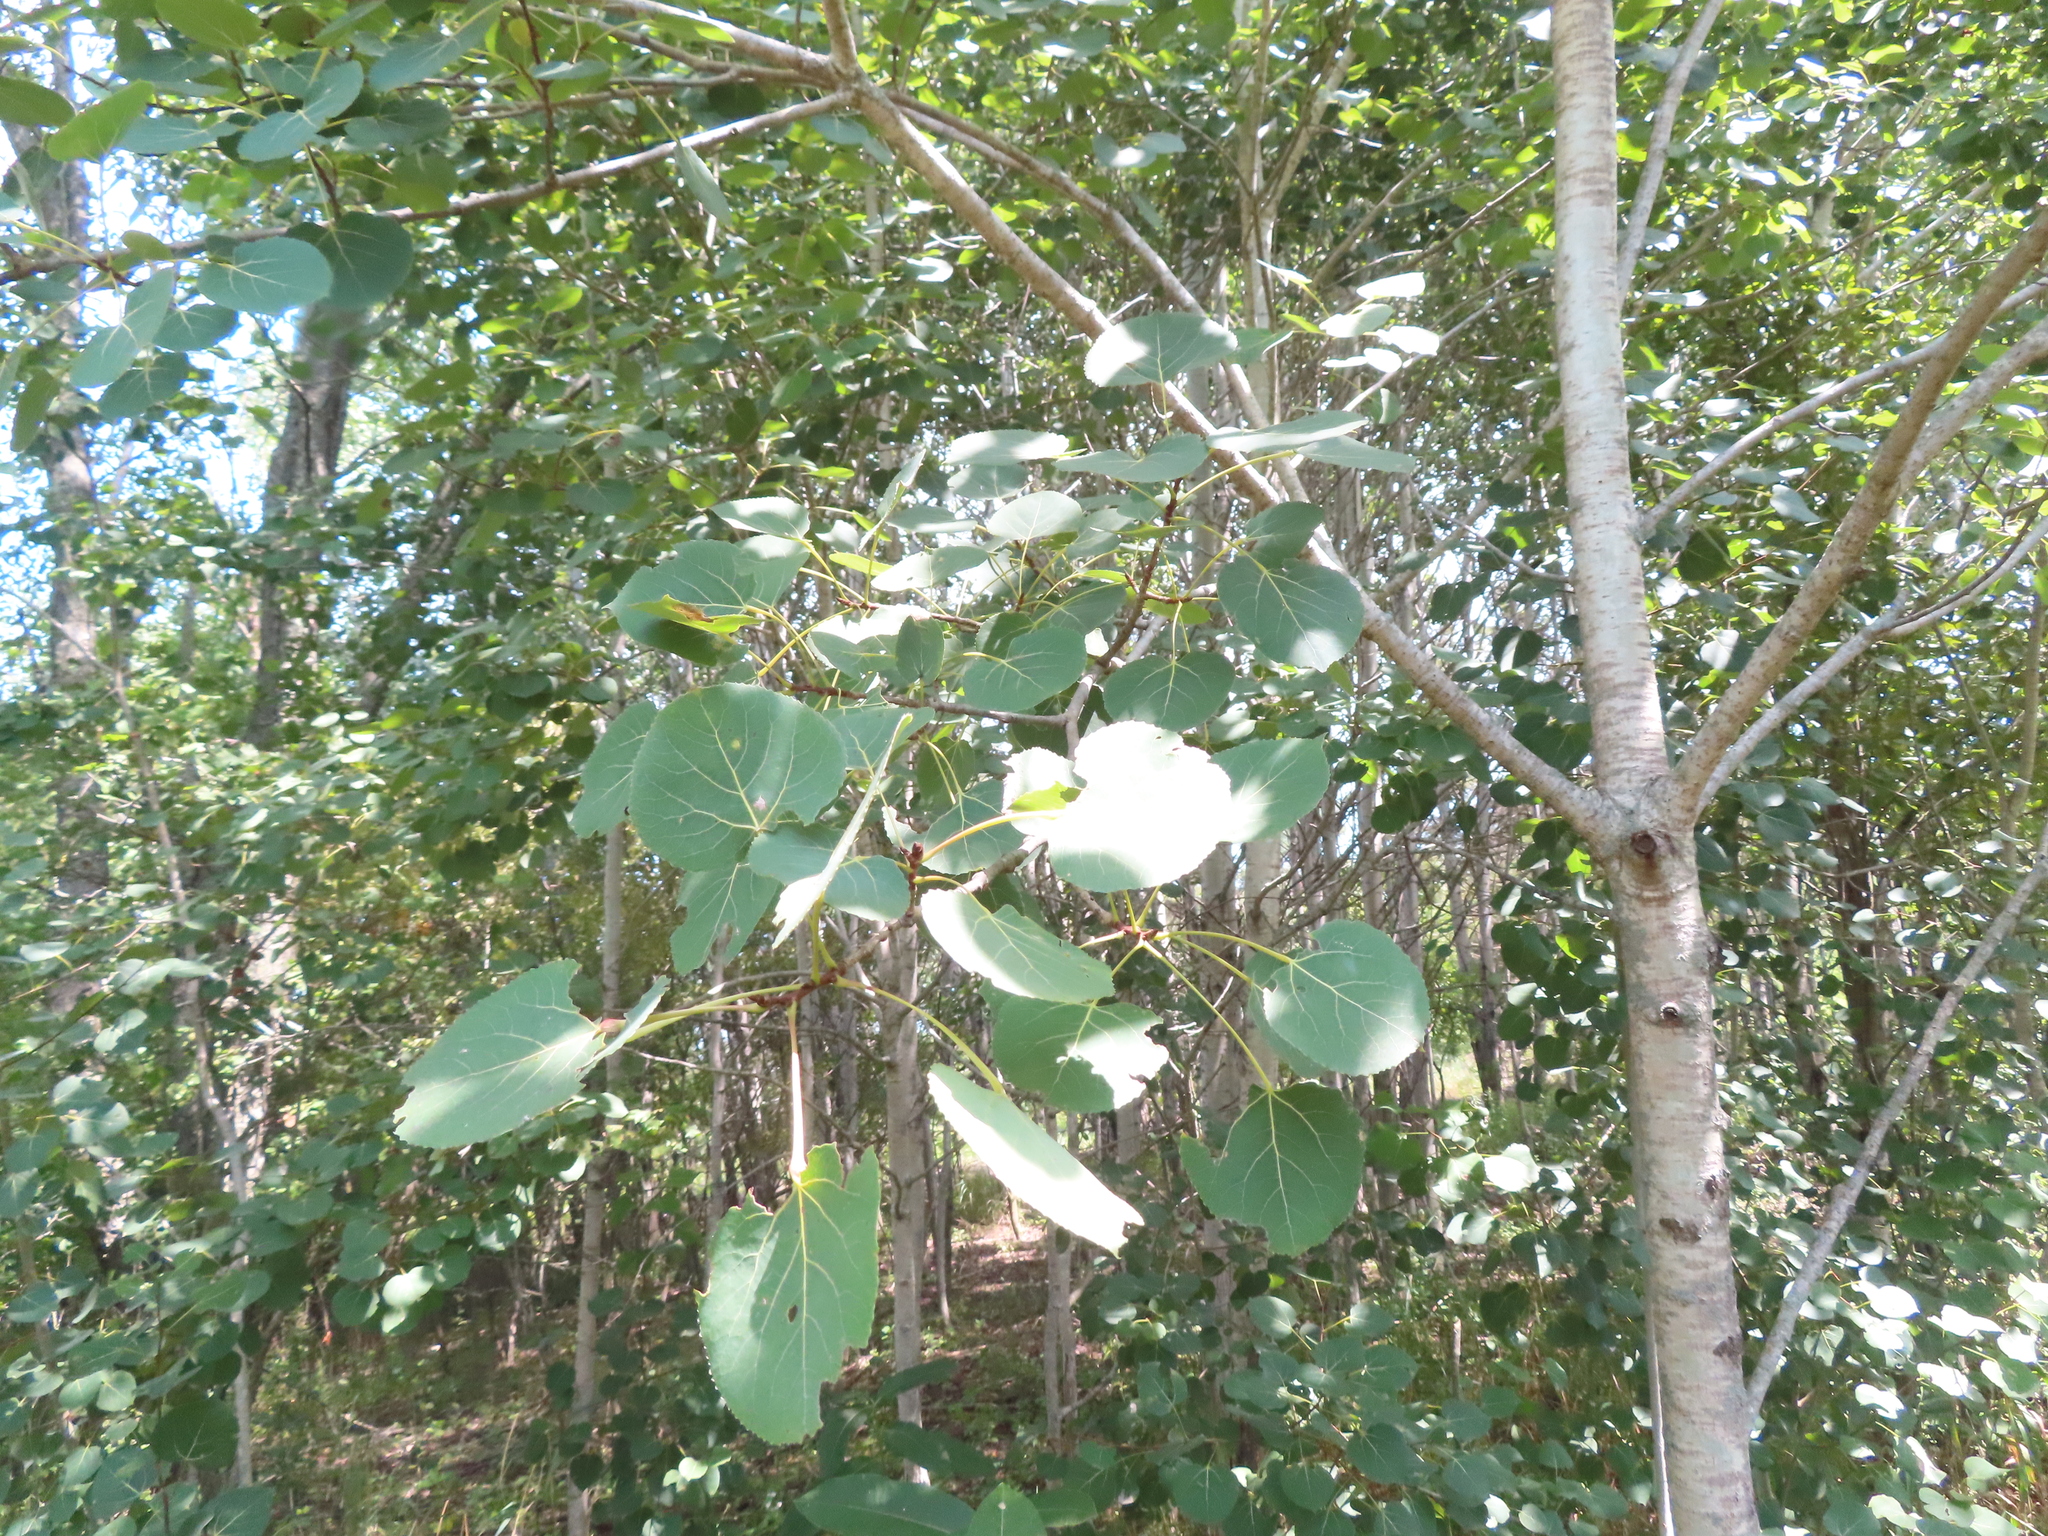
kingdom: Plantae
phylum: Tracheophyta
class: Magnoliopsida
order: Malpighiales
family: Salicaceae
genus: Populus
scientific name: Populus tremuloides
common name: Quaking aspen
